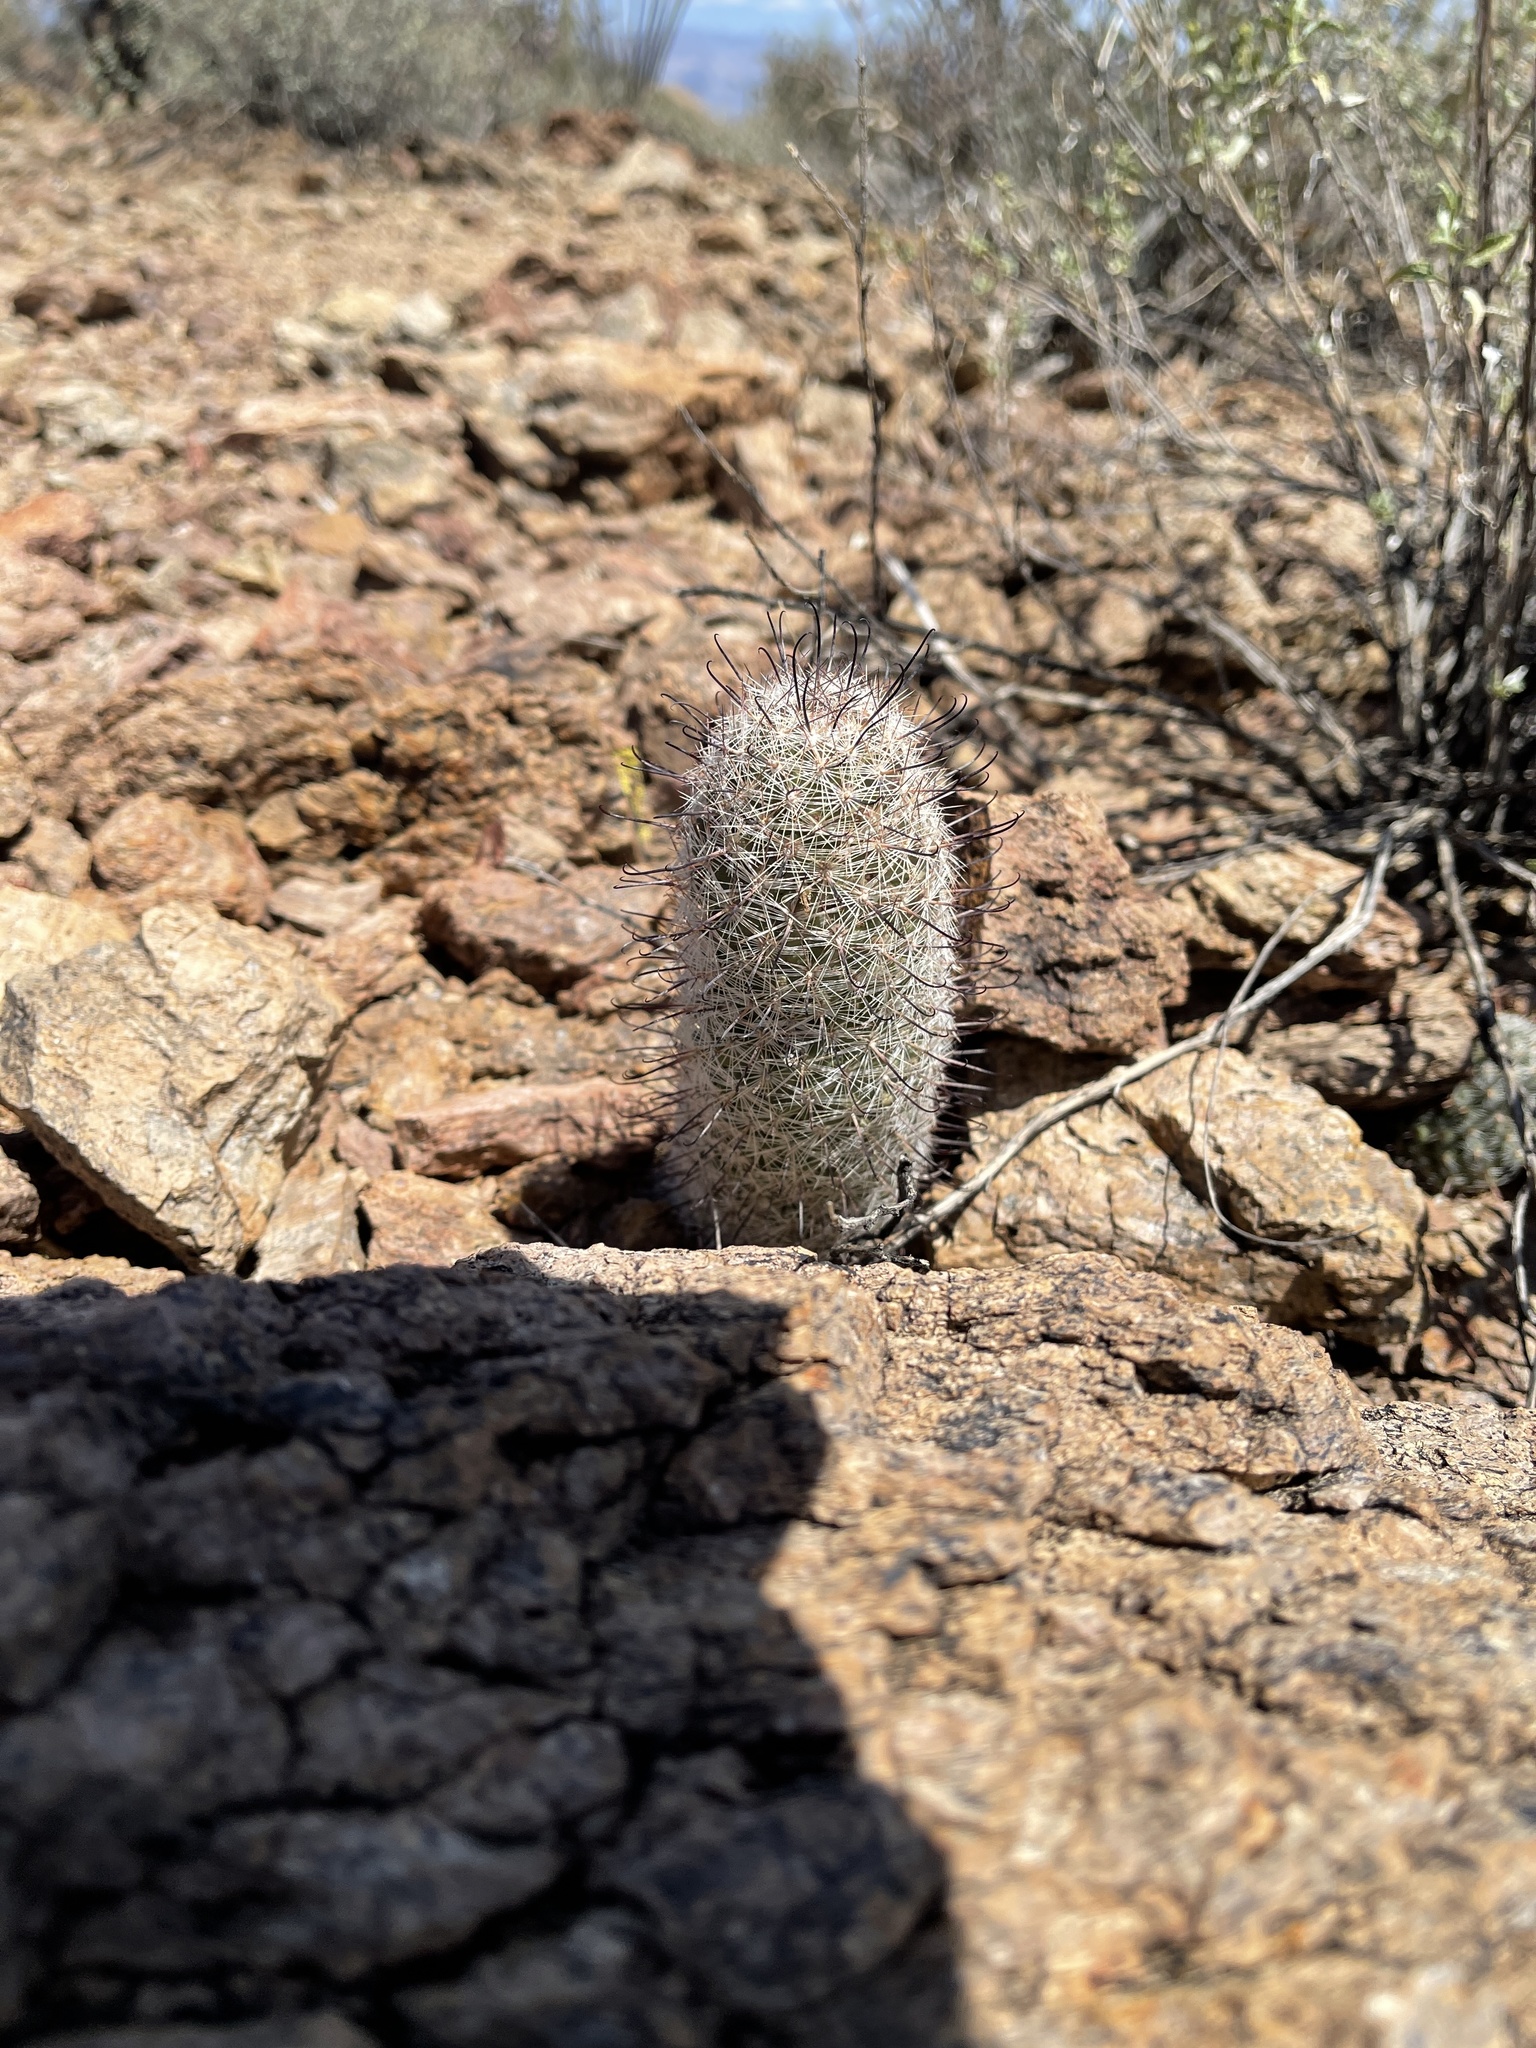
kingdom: Plantae
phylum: Tracheophyta
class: Magnoliopsida
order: Caryophyllales
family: Cactaceae
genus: Cochemiea
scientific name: Cochemiea grahamii
